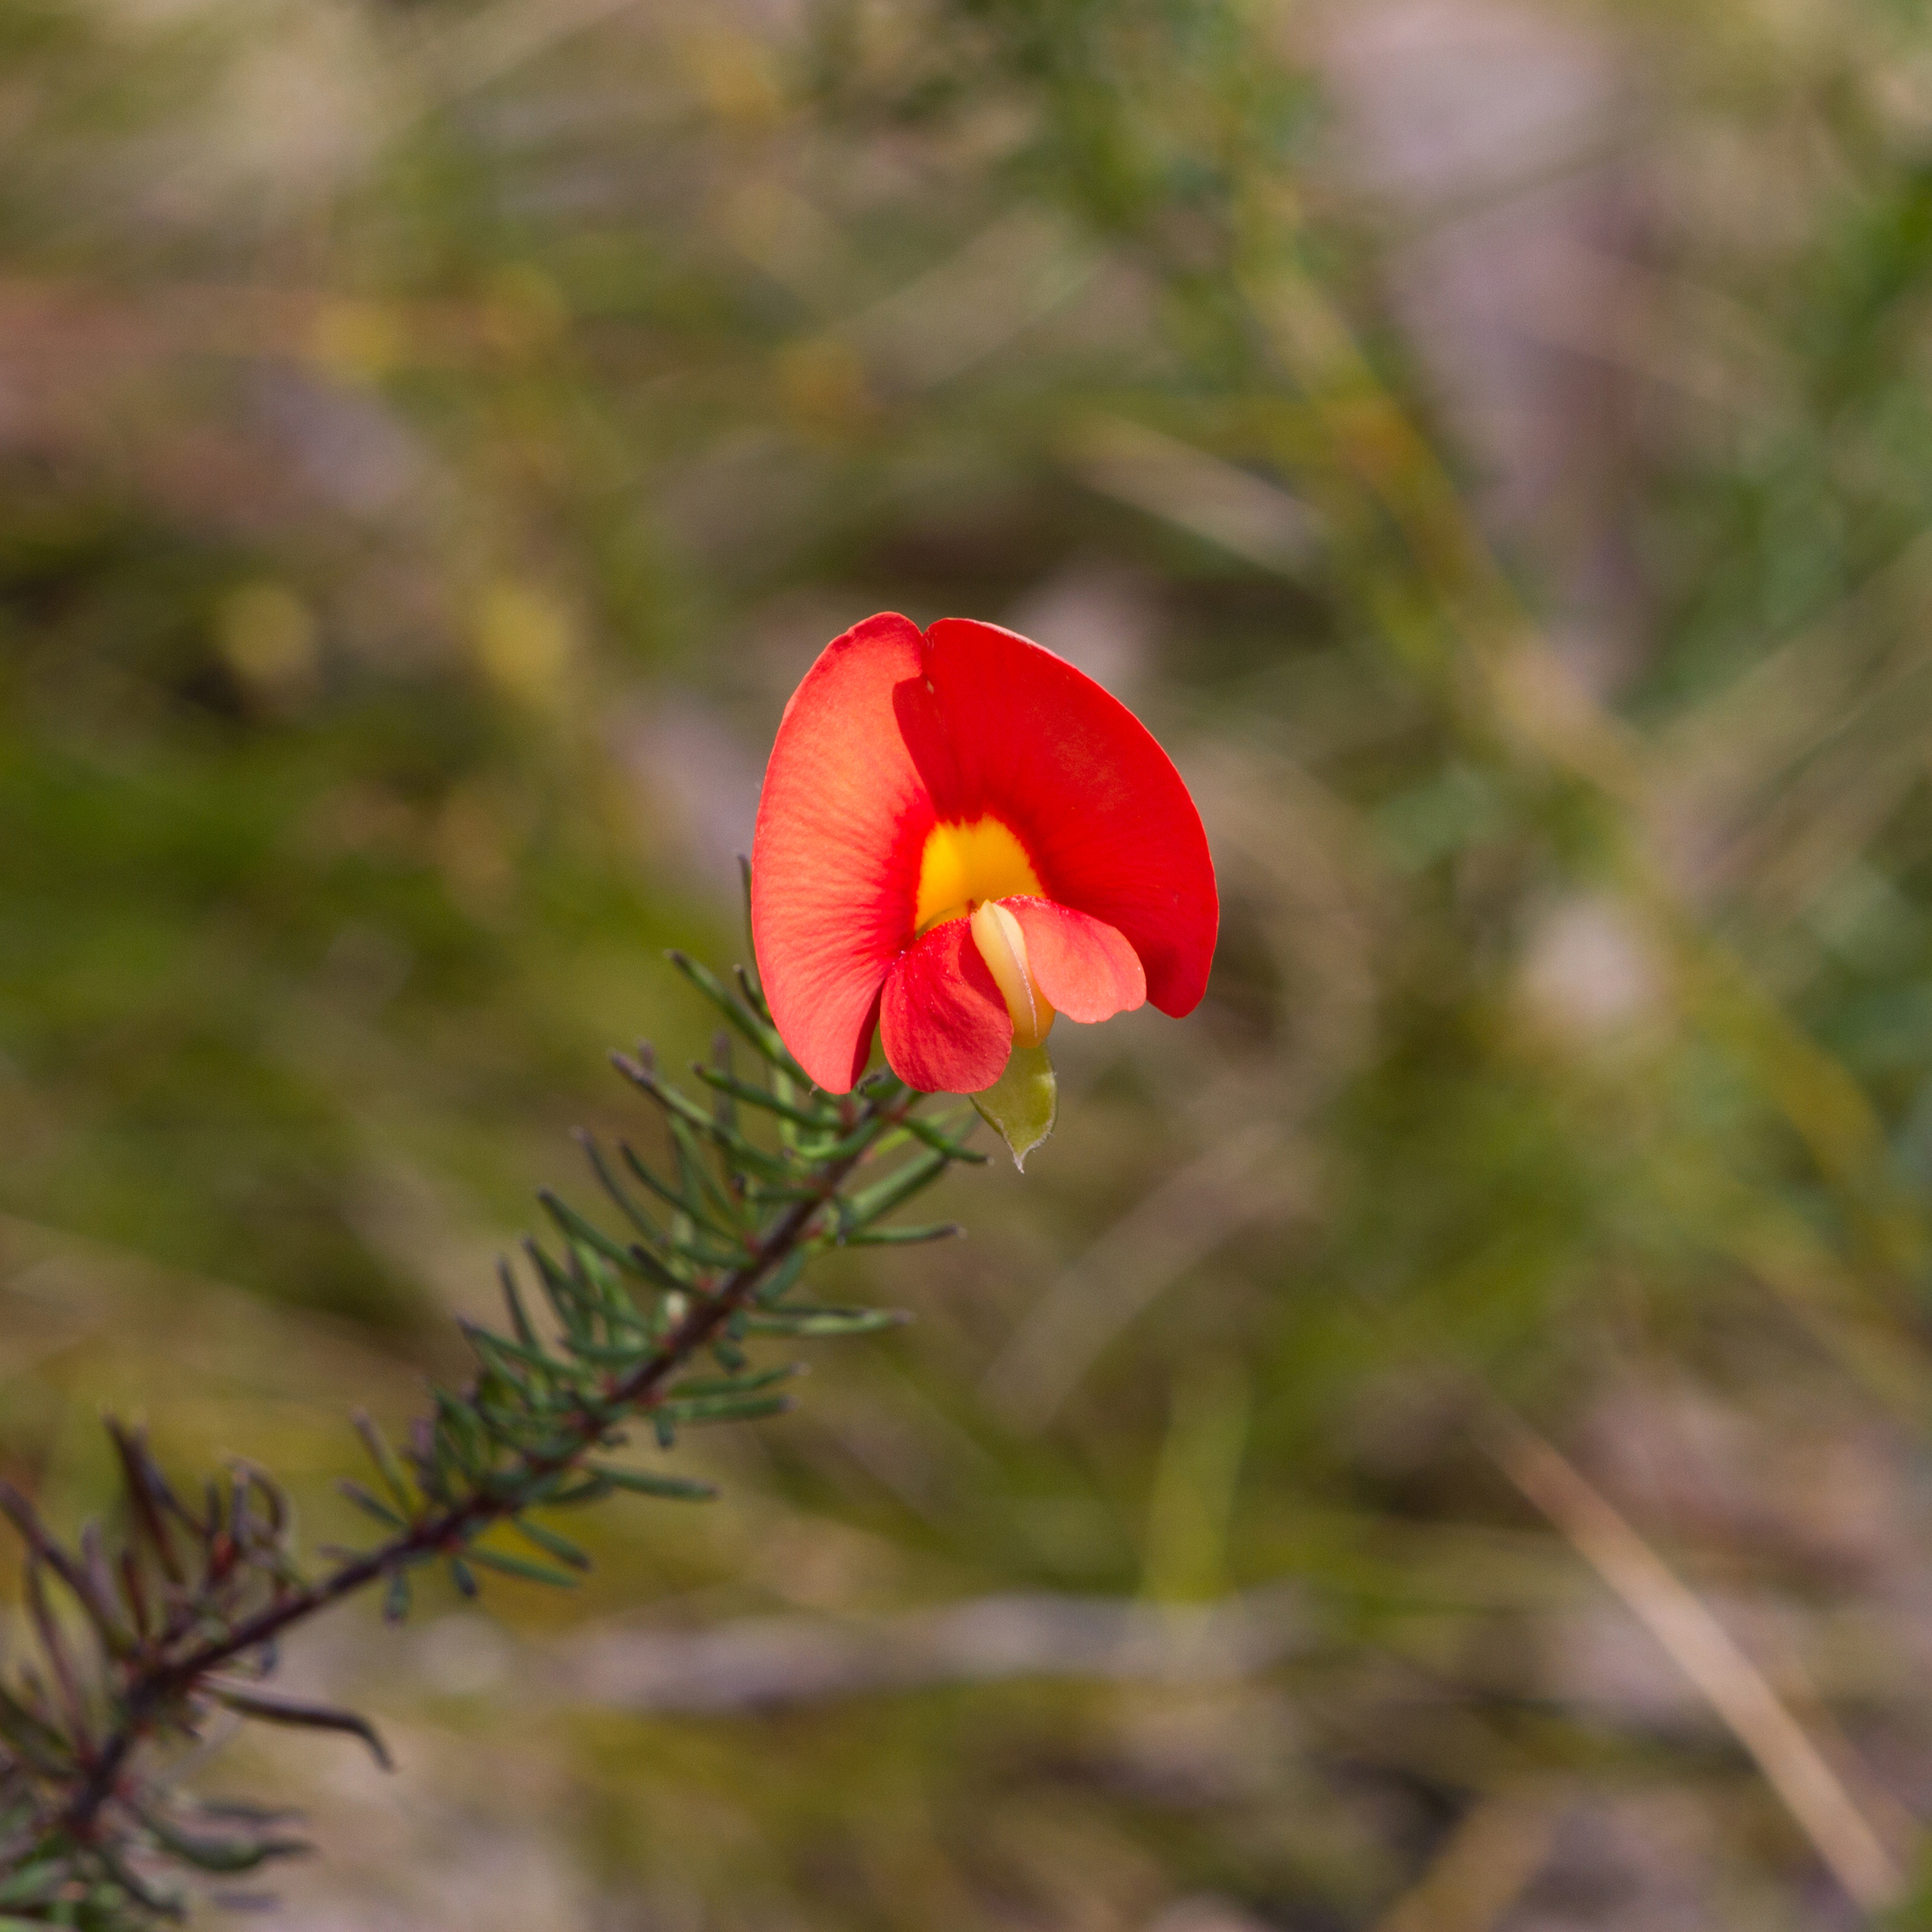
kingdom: Plantae
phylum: Tracheophyta
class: Magnoliopsida
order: Fabales
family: Fabaceae
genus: Gompholobium
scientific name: Gompholobium ecostatum
